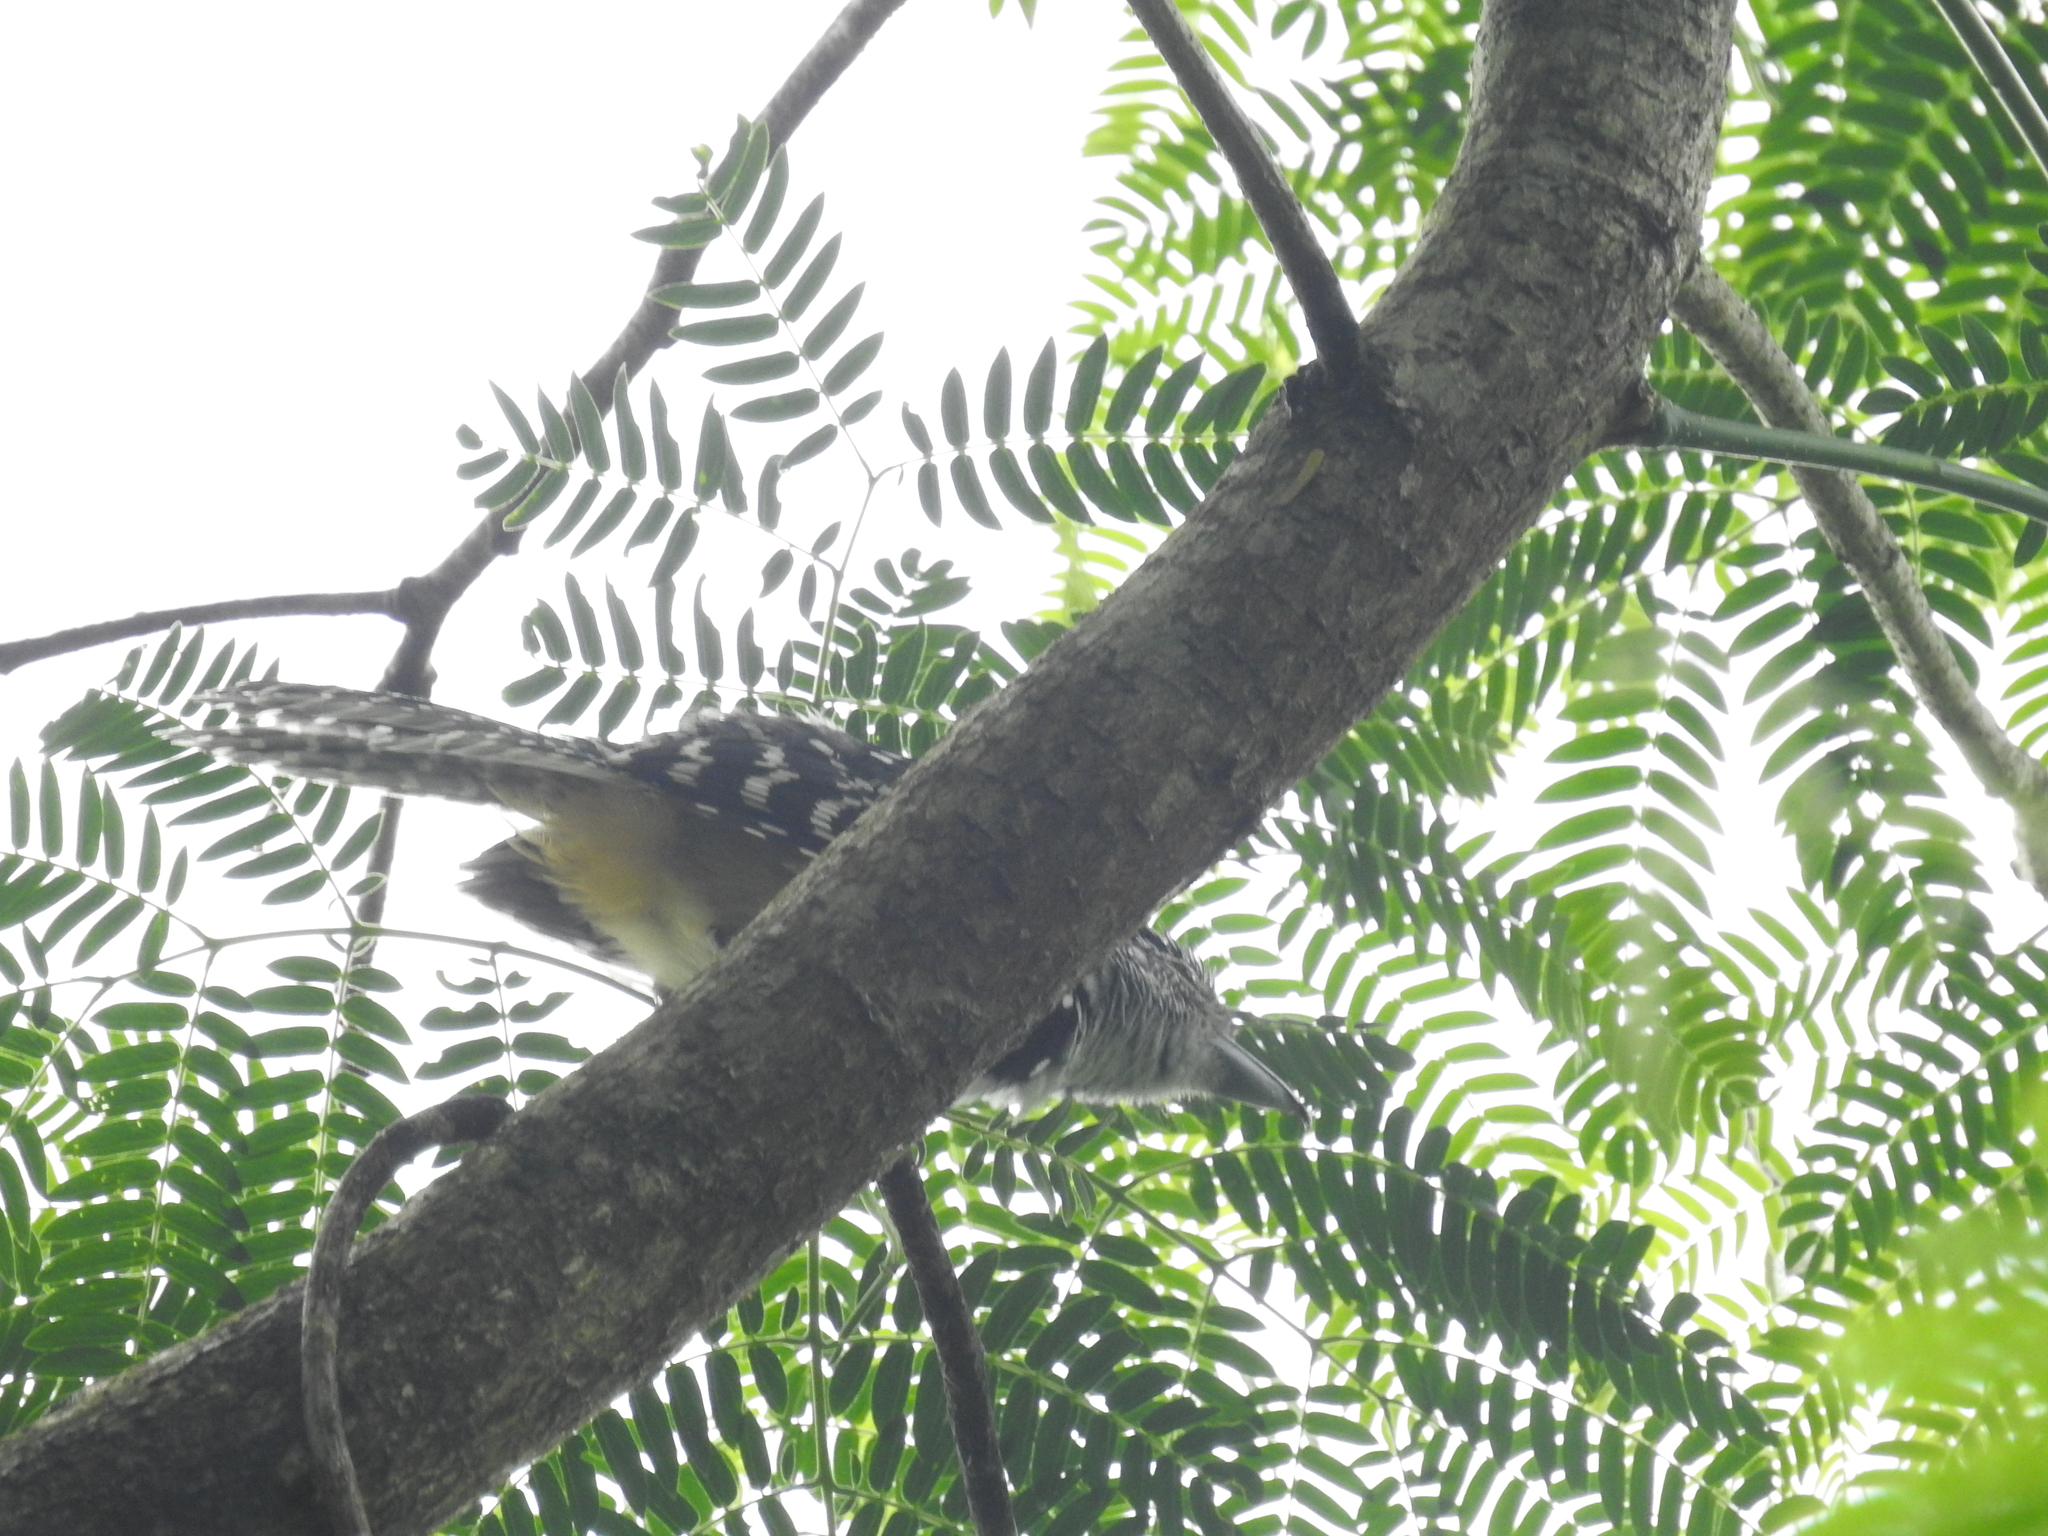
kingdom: Animalia
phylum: Chordata
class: Aves
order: Passeriformes
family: Thamnophilidae
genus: Hypoedaleus
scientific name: Hypoedaleus guttatus
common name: Spot-backed antshrike
